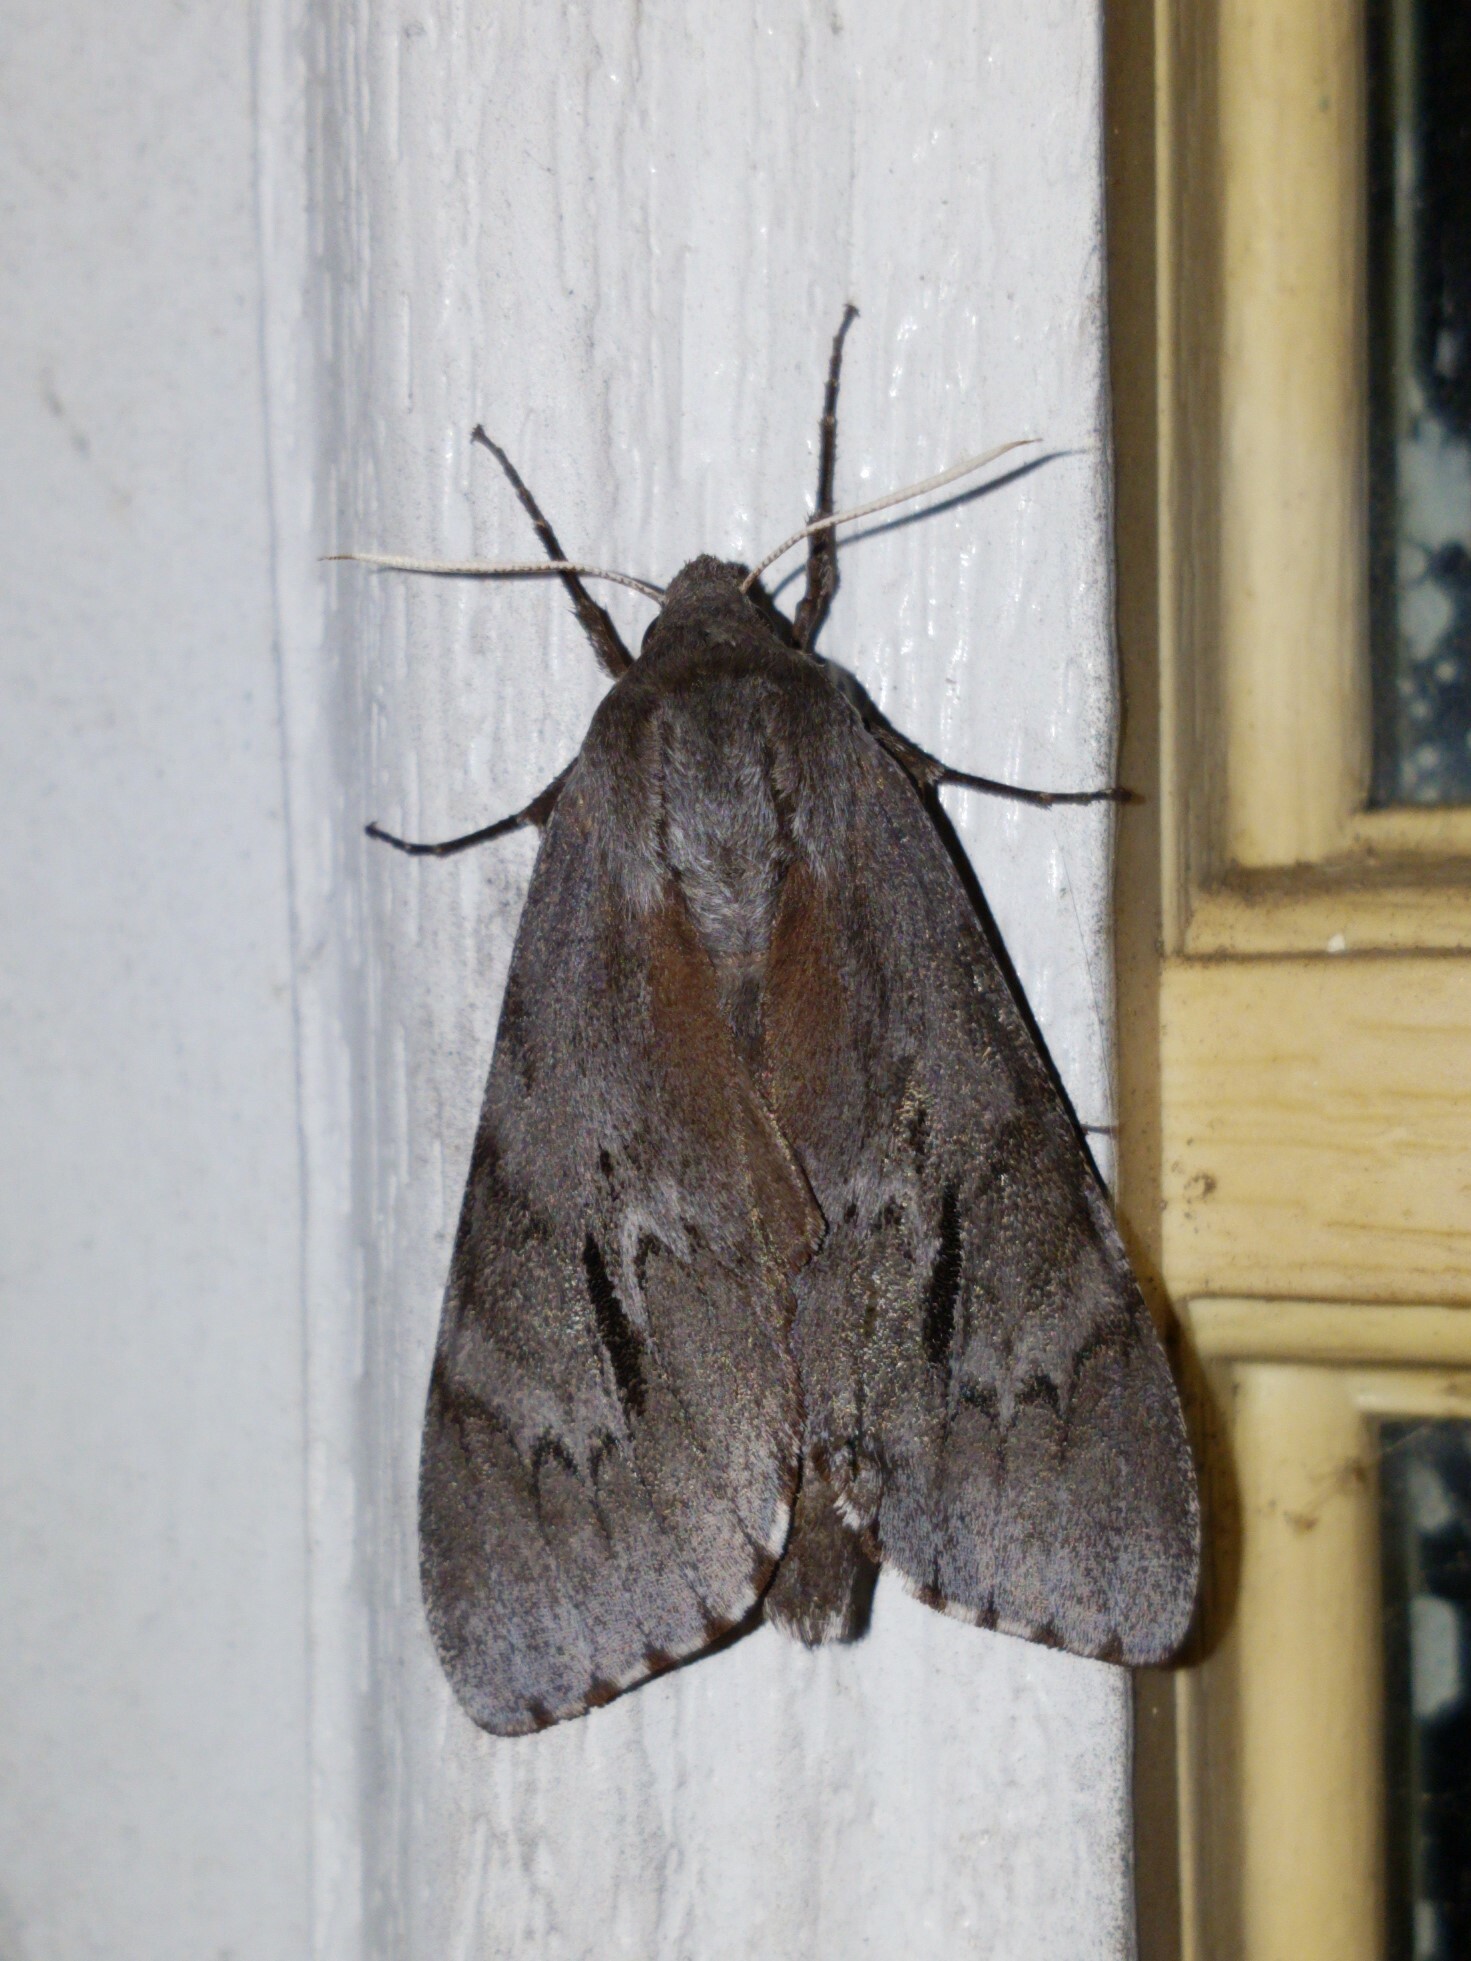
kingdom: Animalia
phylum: Arthropoda
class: Insecta
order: Lepidoptera
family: Sphingidae
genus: Lapara
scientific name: Lapara coniferarum
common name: Southern pine sphinx
